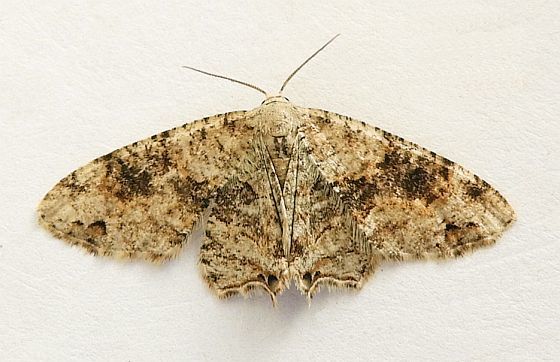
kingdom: Animalia
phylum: Arthropoda
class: Insecta
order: Lepidoptera
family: Uraniidae
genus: Epiplema
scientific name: Epiplema Callizzia certiorara
